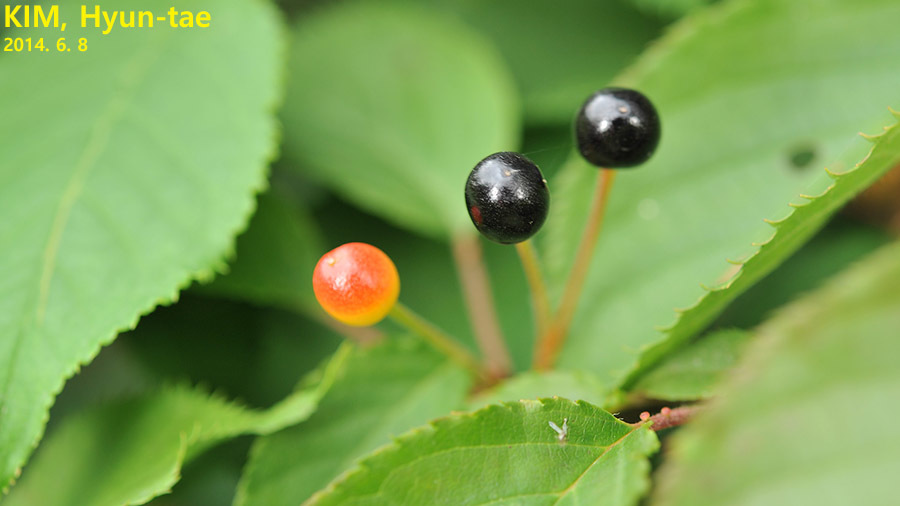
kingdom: Plantae
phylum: Tracheophyta
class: Magnoliopsida
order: Rosales
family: Rosaceae
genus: Prunus
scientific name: Prunus serrulata
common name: Japanese cherry
